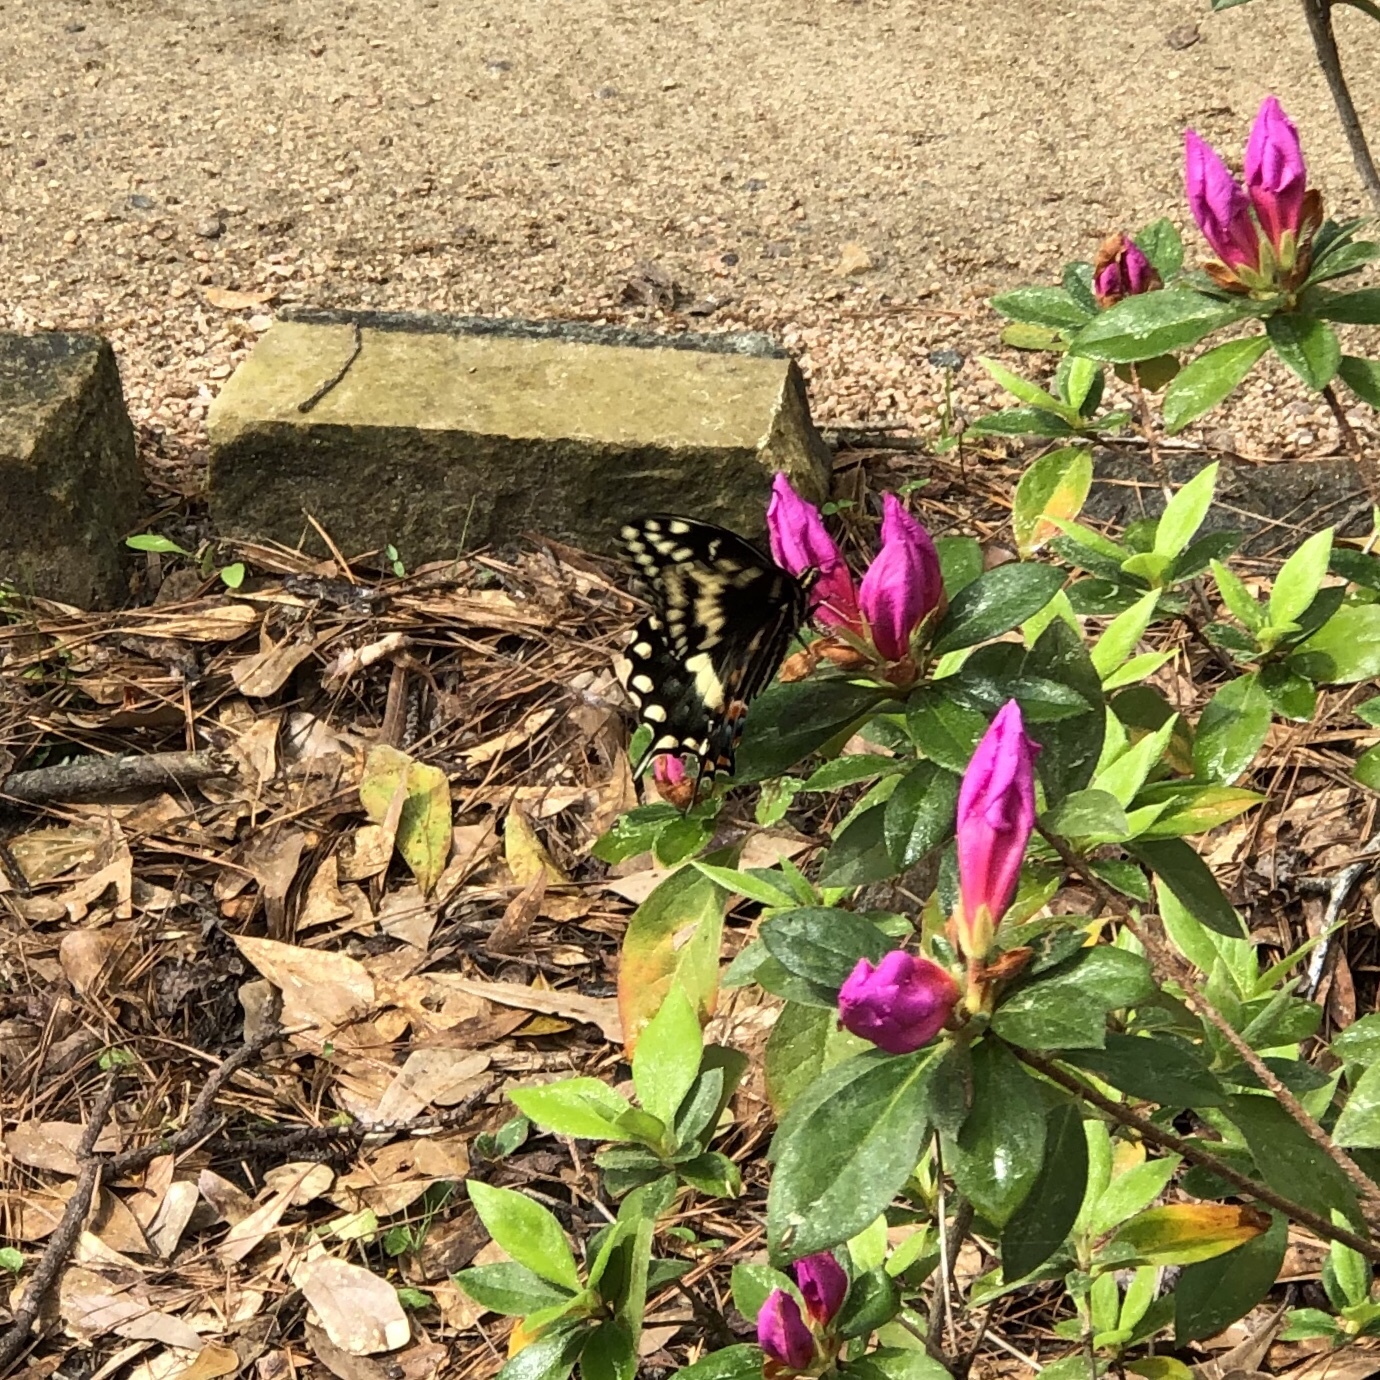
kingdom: Animalia
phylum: Arthropoda
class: Insecta
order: Lepidoptera
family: Papilionidae
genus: Papilio
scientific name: Papilio palamedes
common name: Palamedes swallowtail
